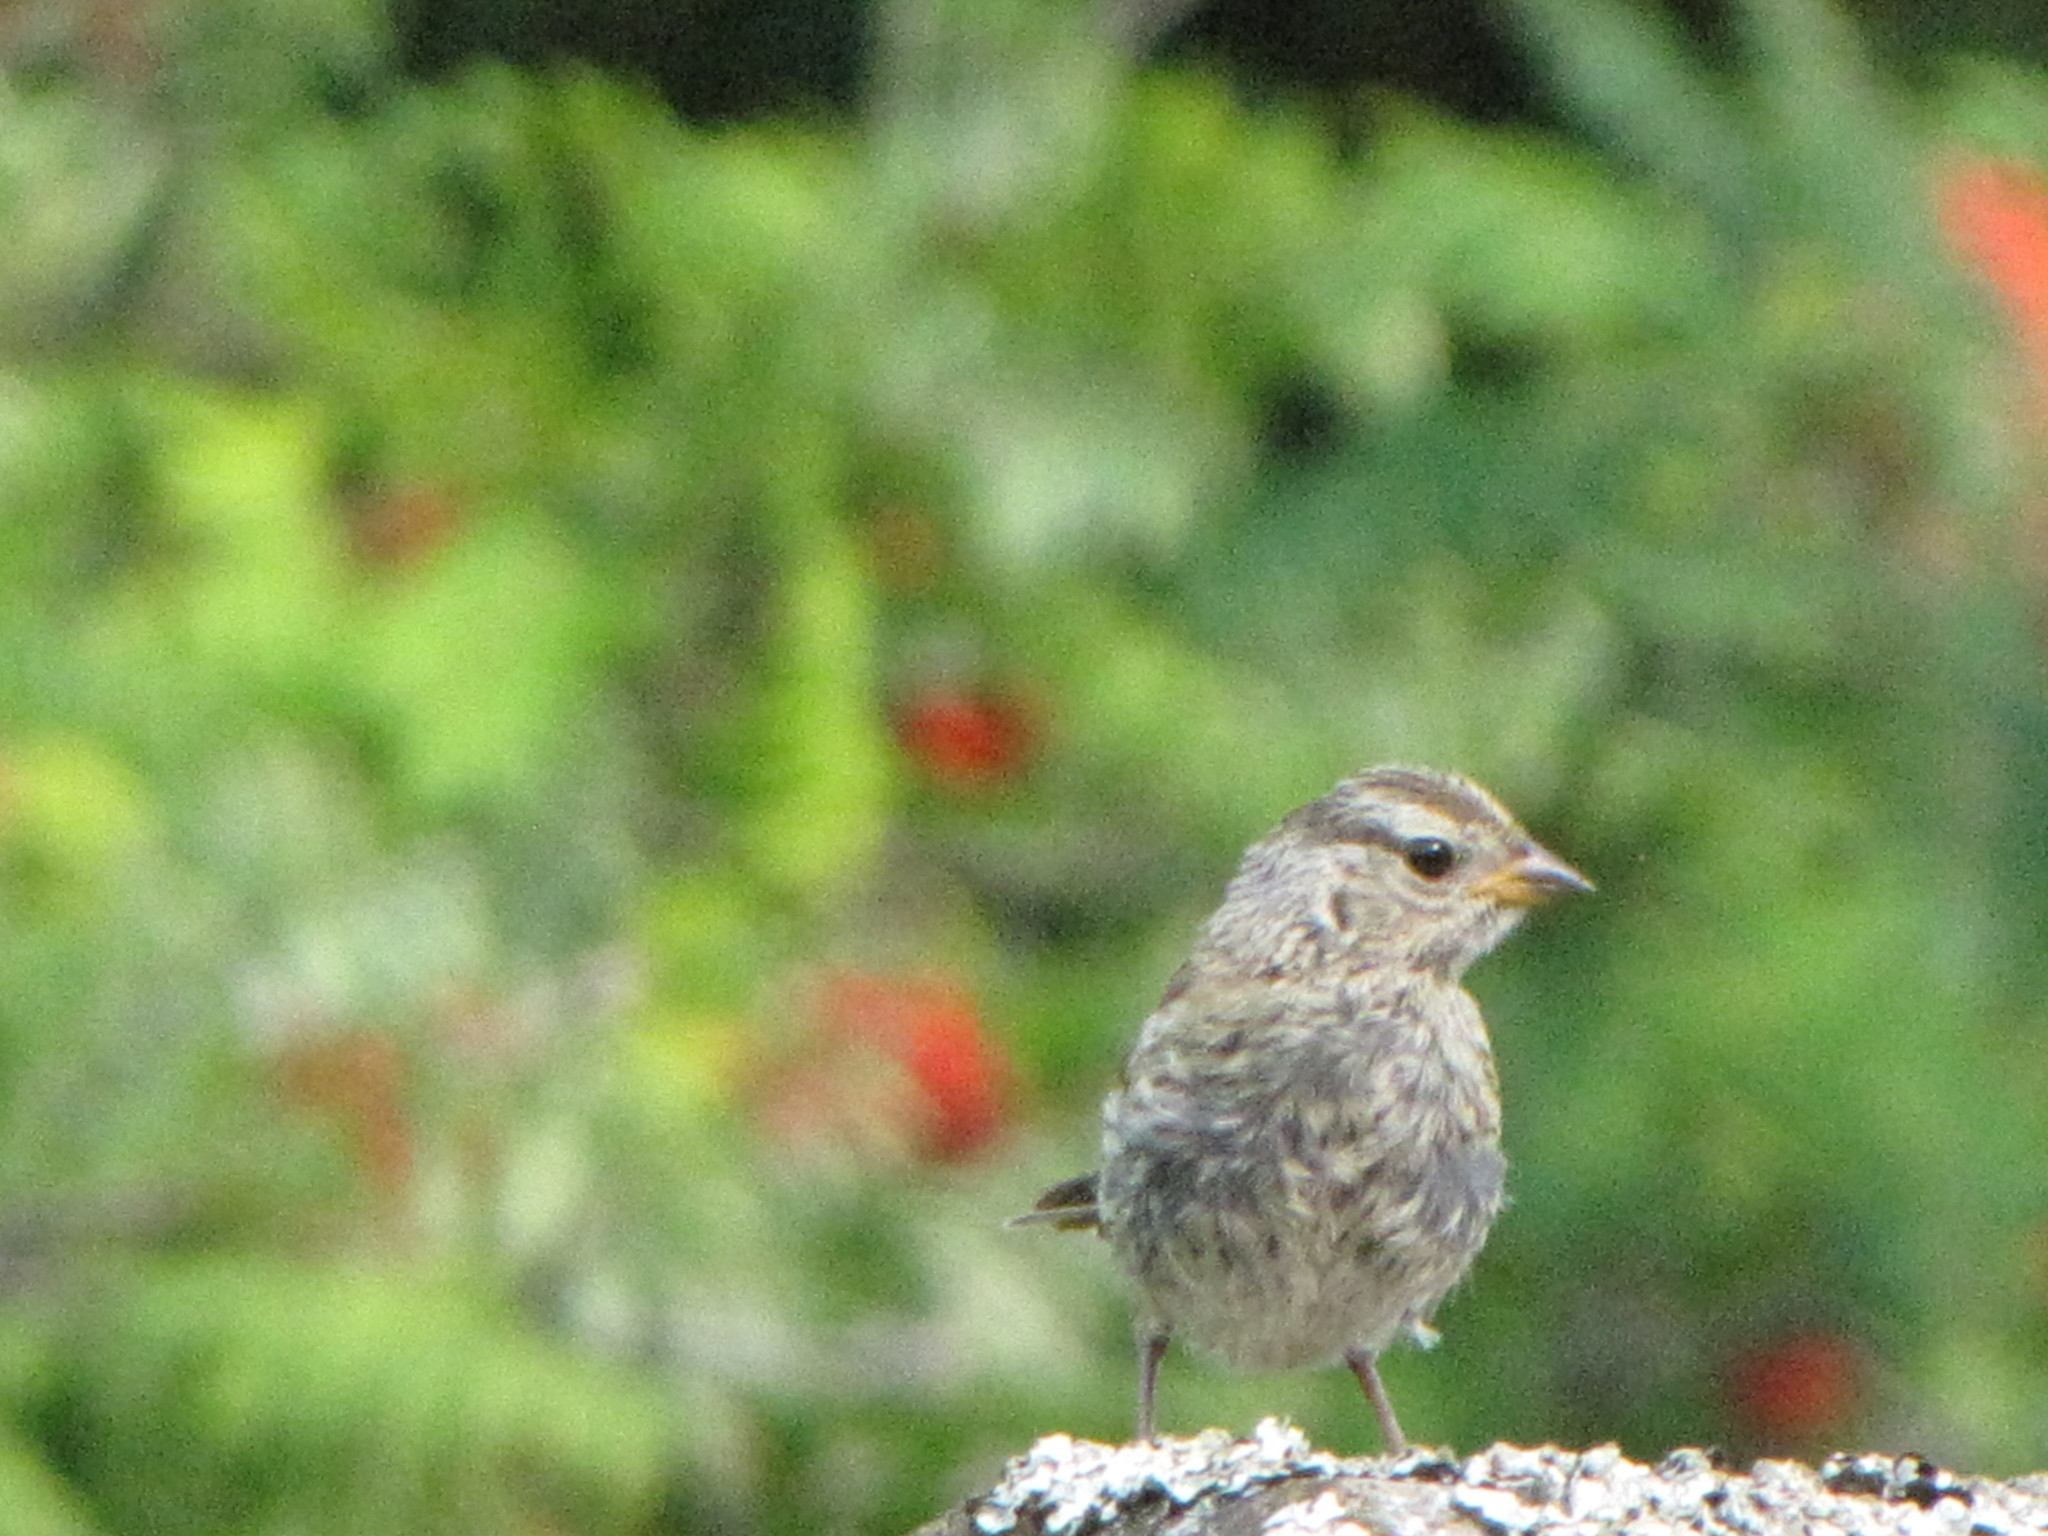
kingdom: Animalia
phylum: Chordata
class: Aves
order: Passeriformes
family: Passerellidae
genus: Zonotrichia
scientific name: Zonotrichia leucophrys
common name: White-crowned sparrow
